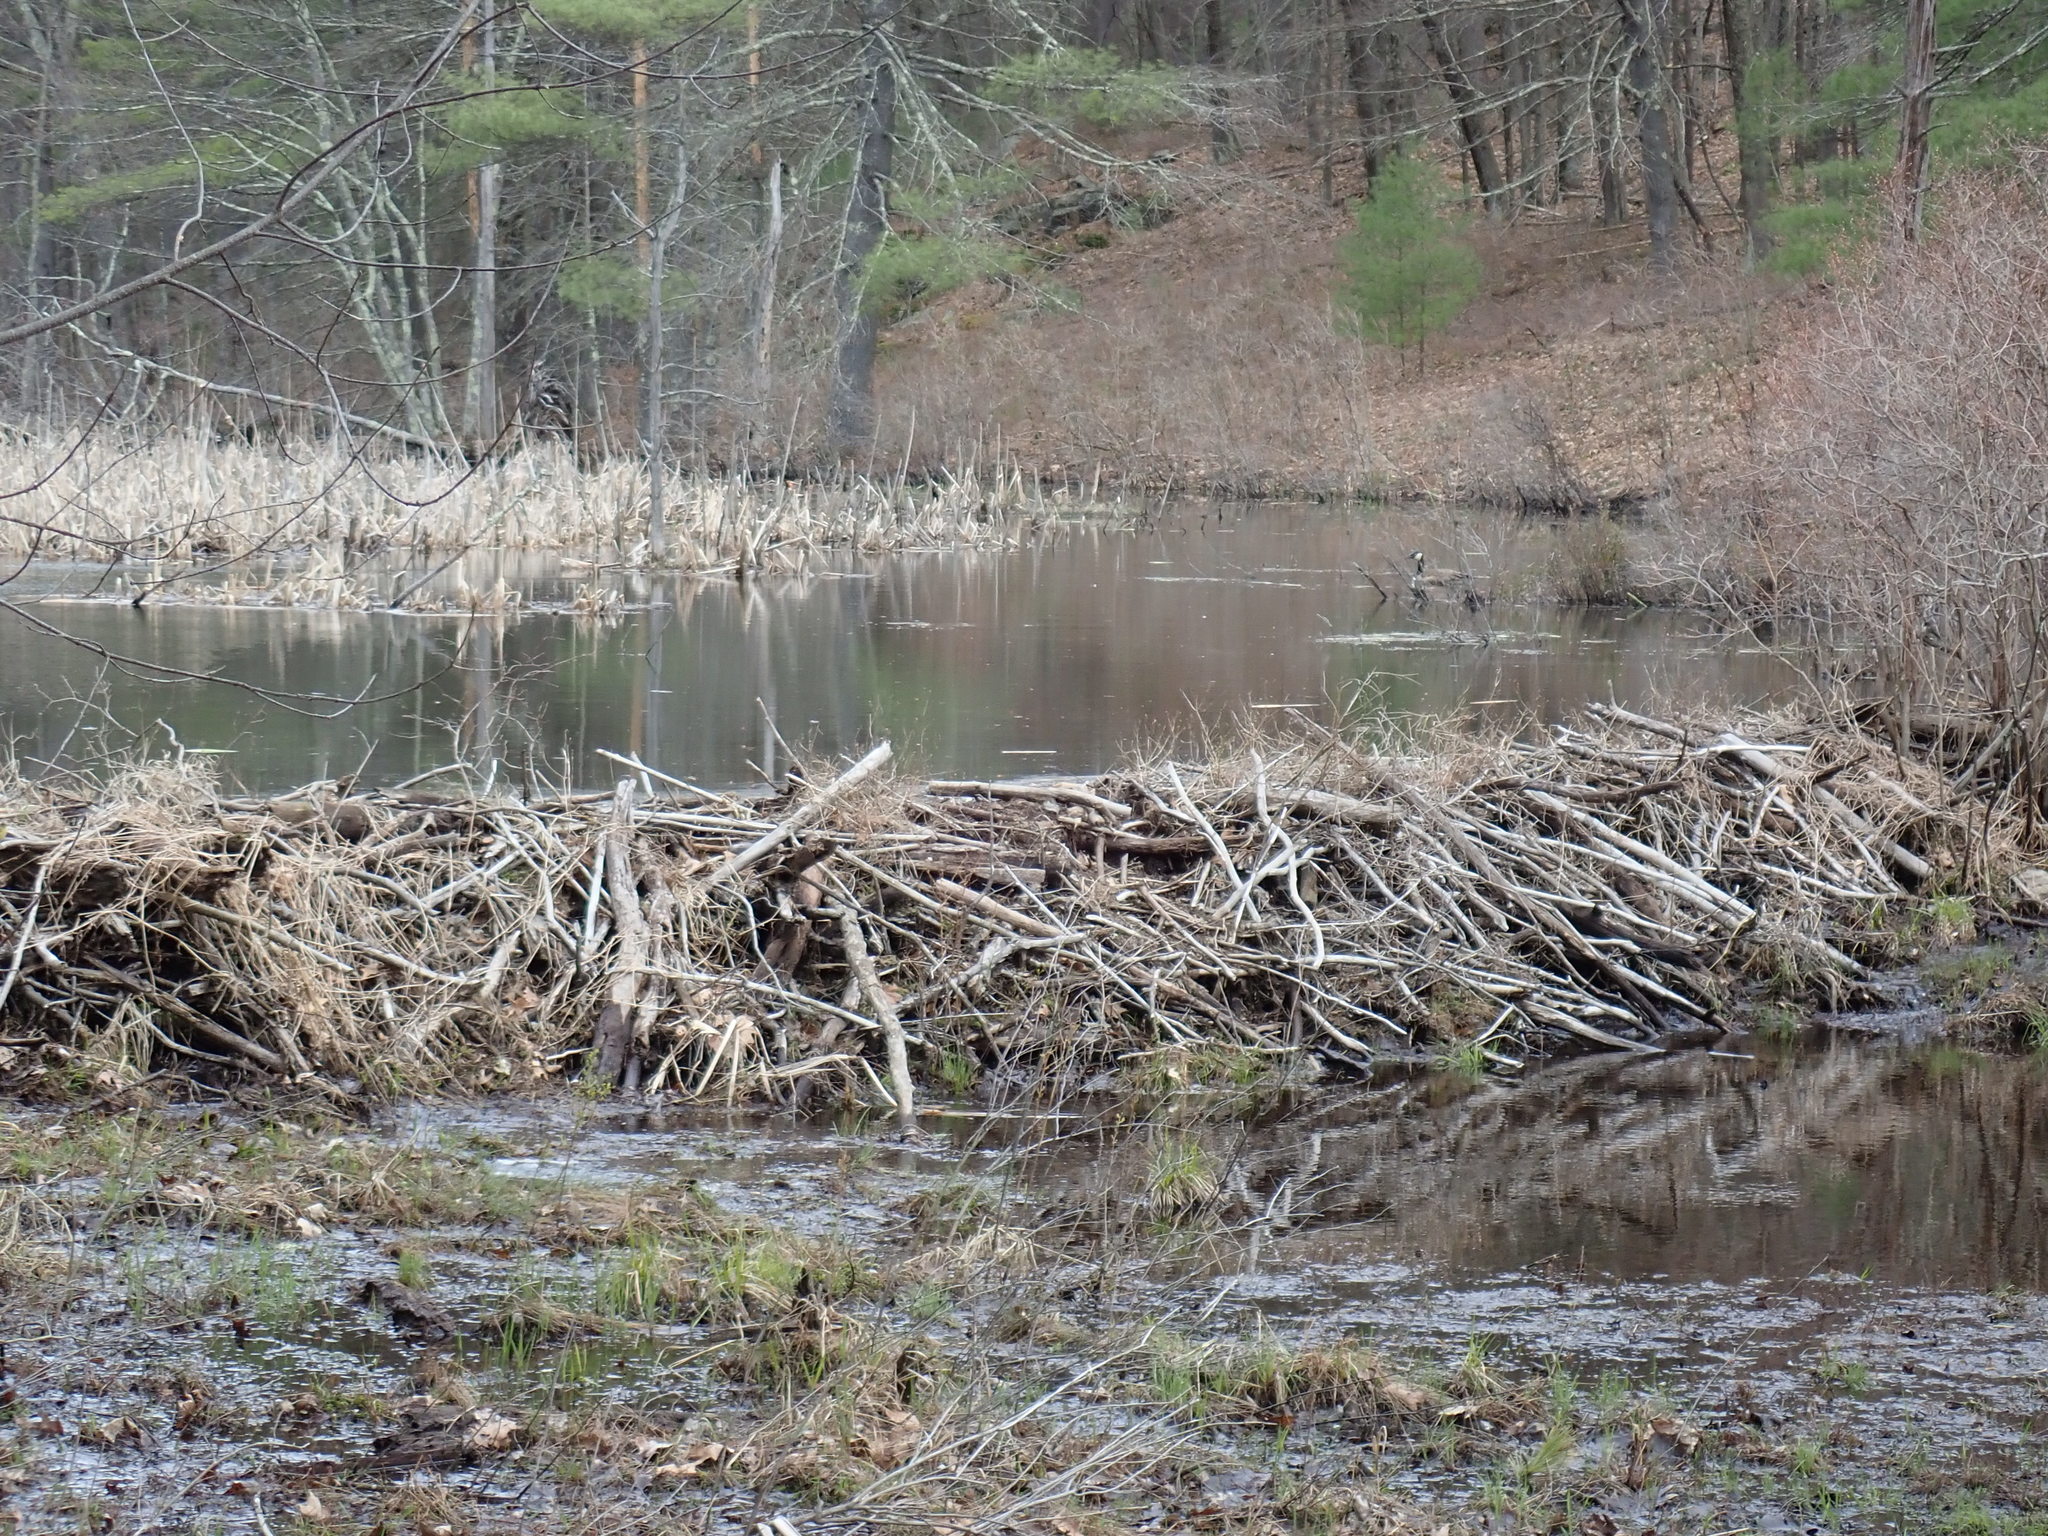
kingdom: Animalia
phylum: Chordata
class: Mammalia
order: Rodentia
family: Castoridae
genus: Castor
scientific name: Castor canadensis
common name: American beaver
